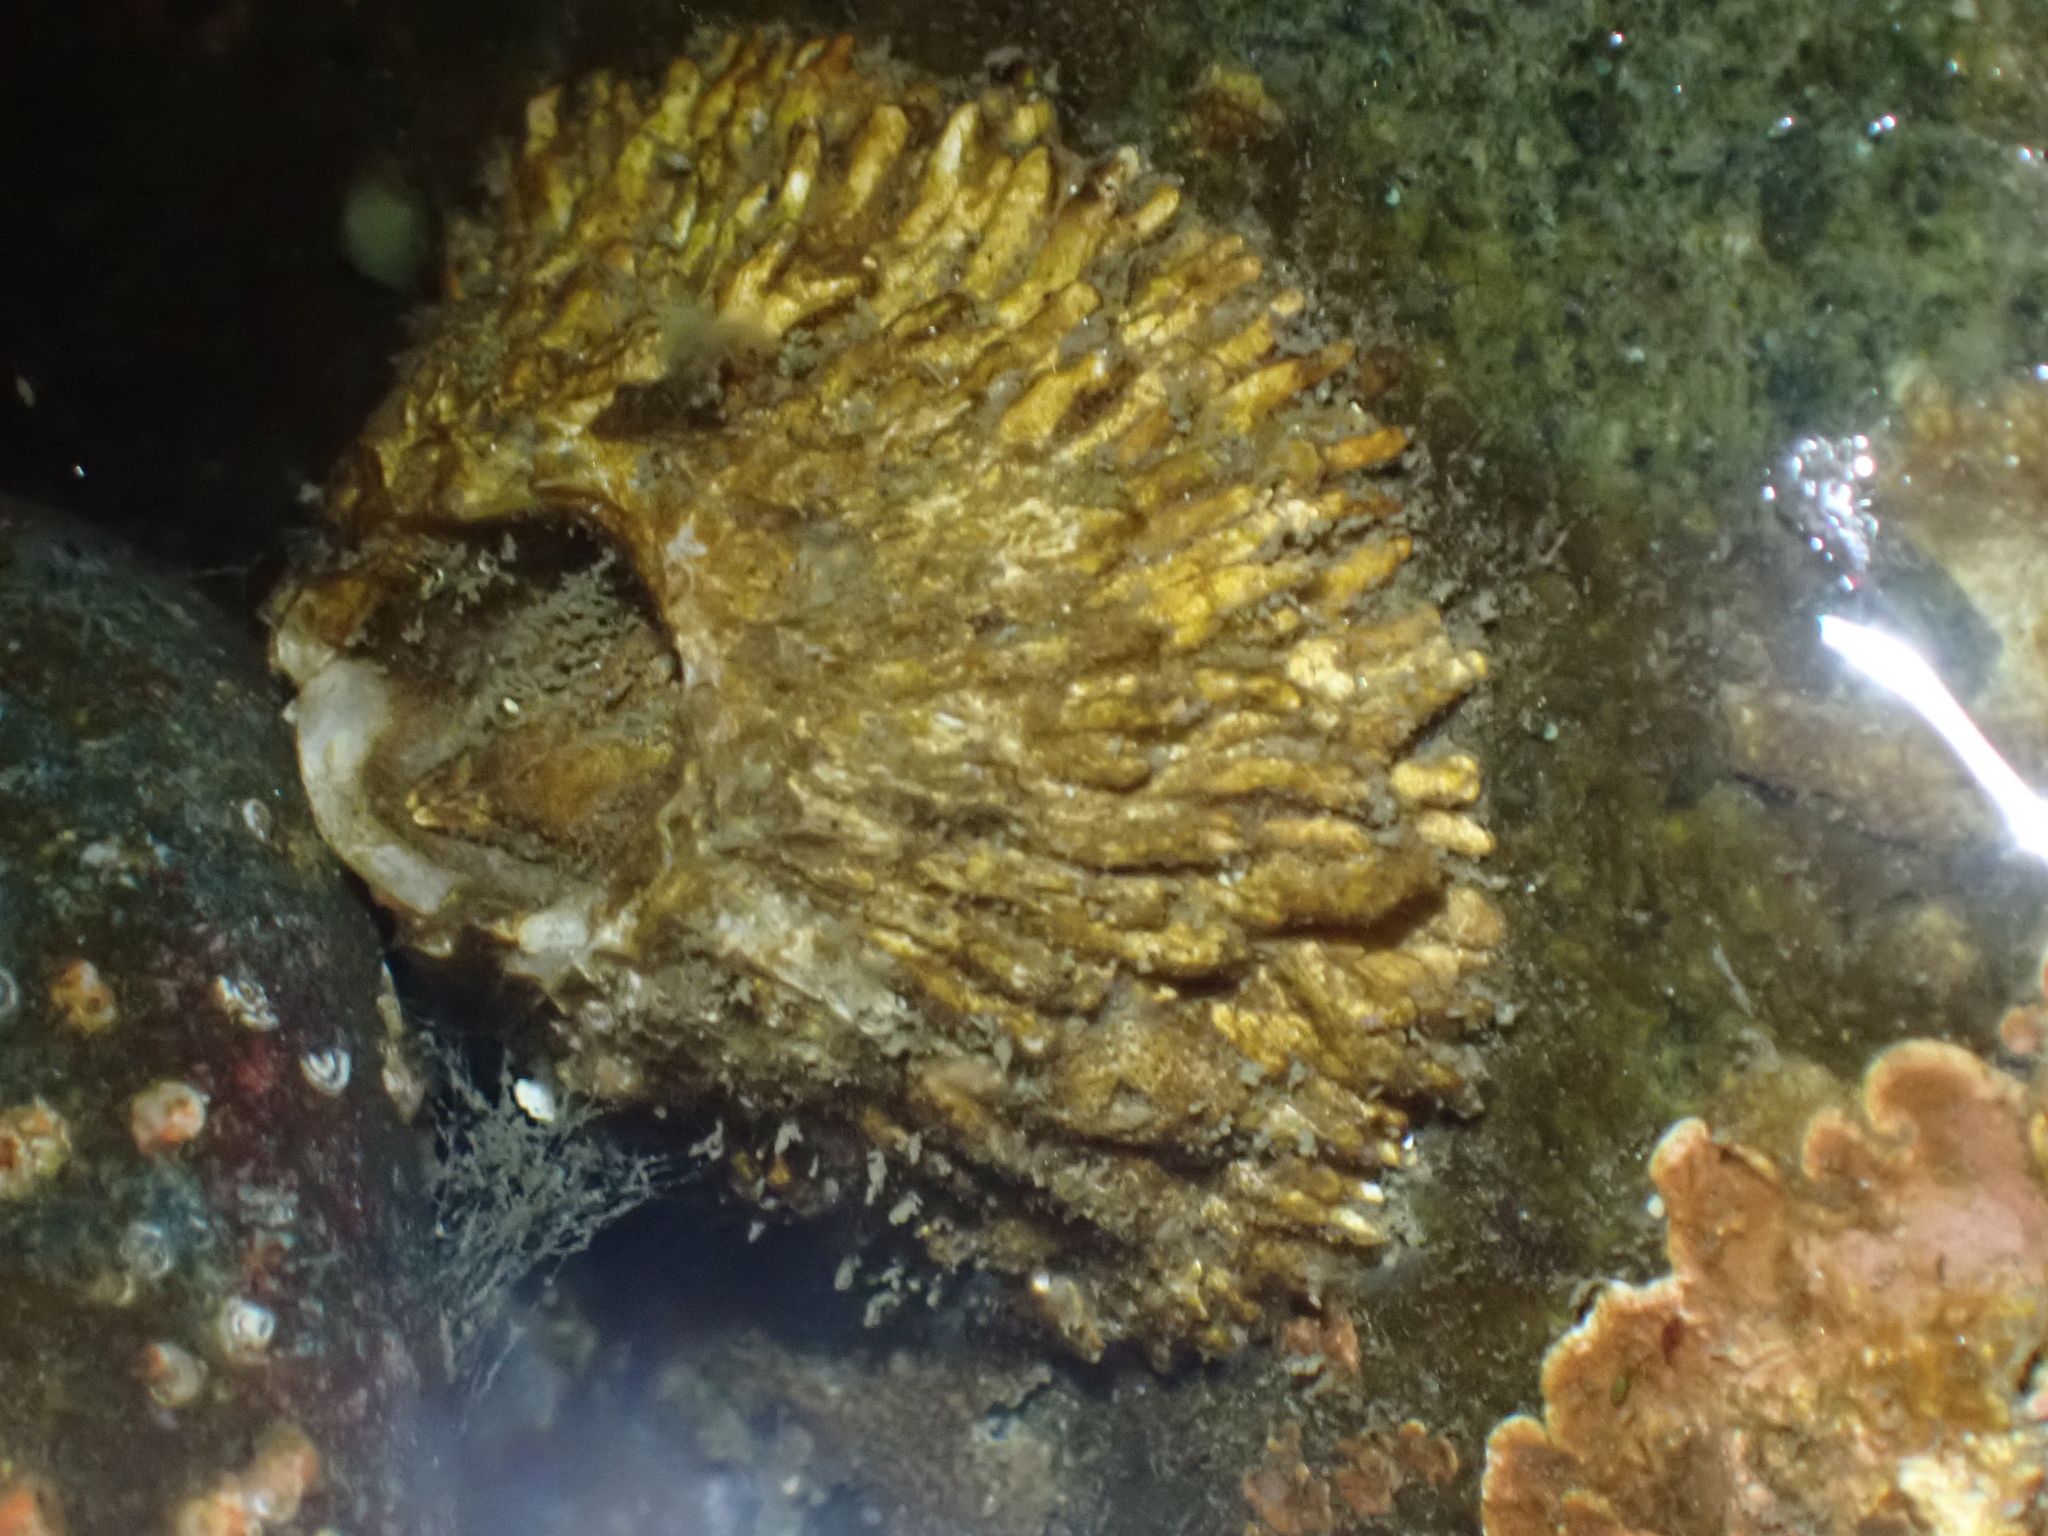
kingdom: Animalia
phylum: Arthropoda
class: Maxillopoda
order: Sessilia
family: Archaeobalanidae
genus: Semibalanus
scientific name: Semibalanus cariosus
